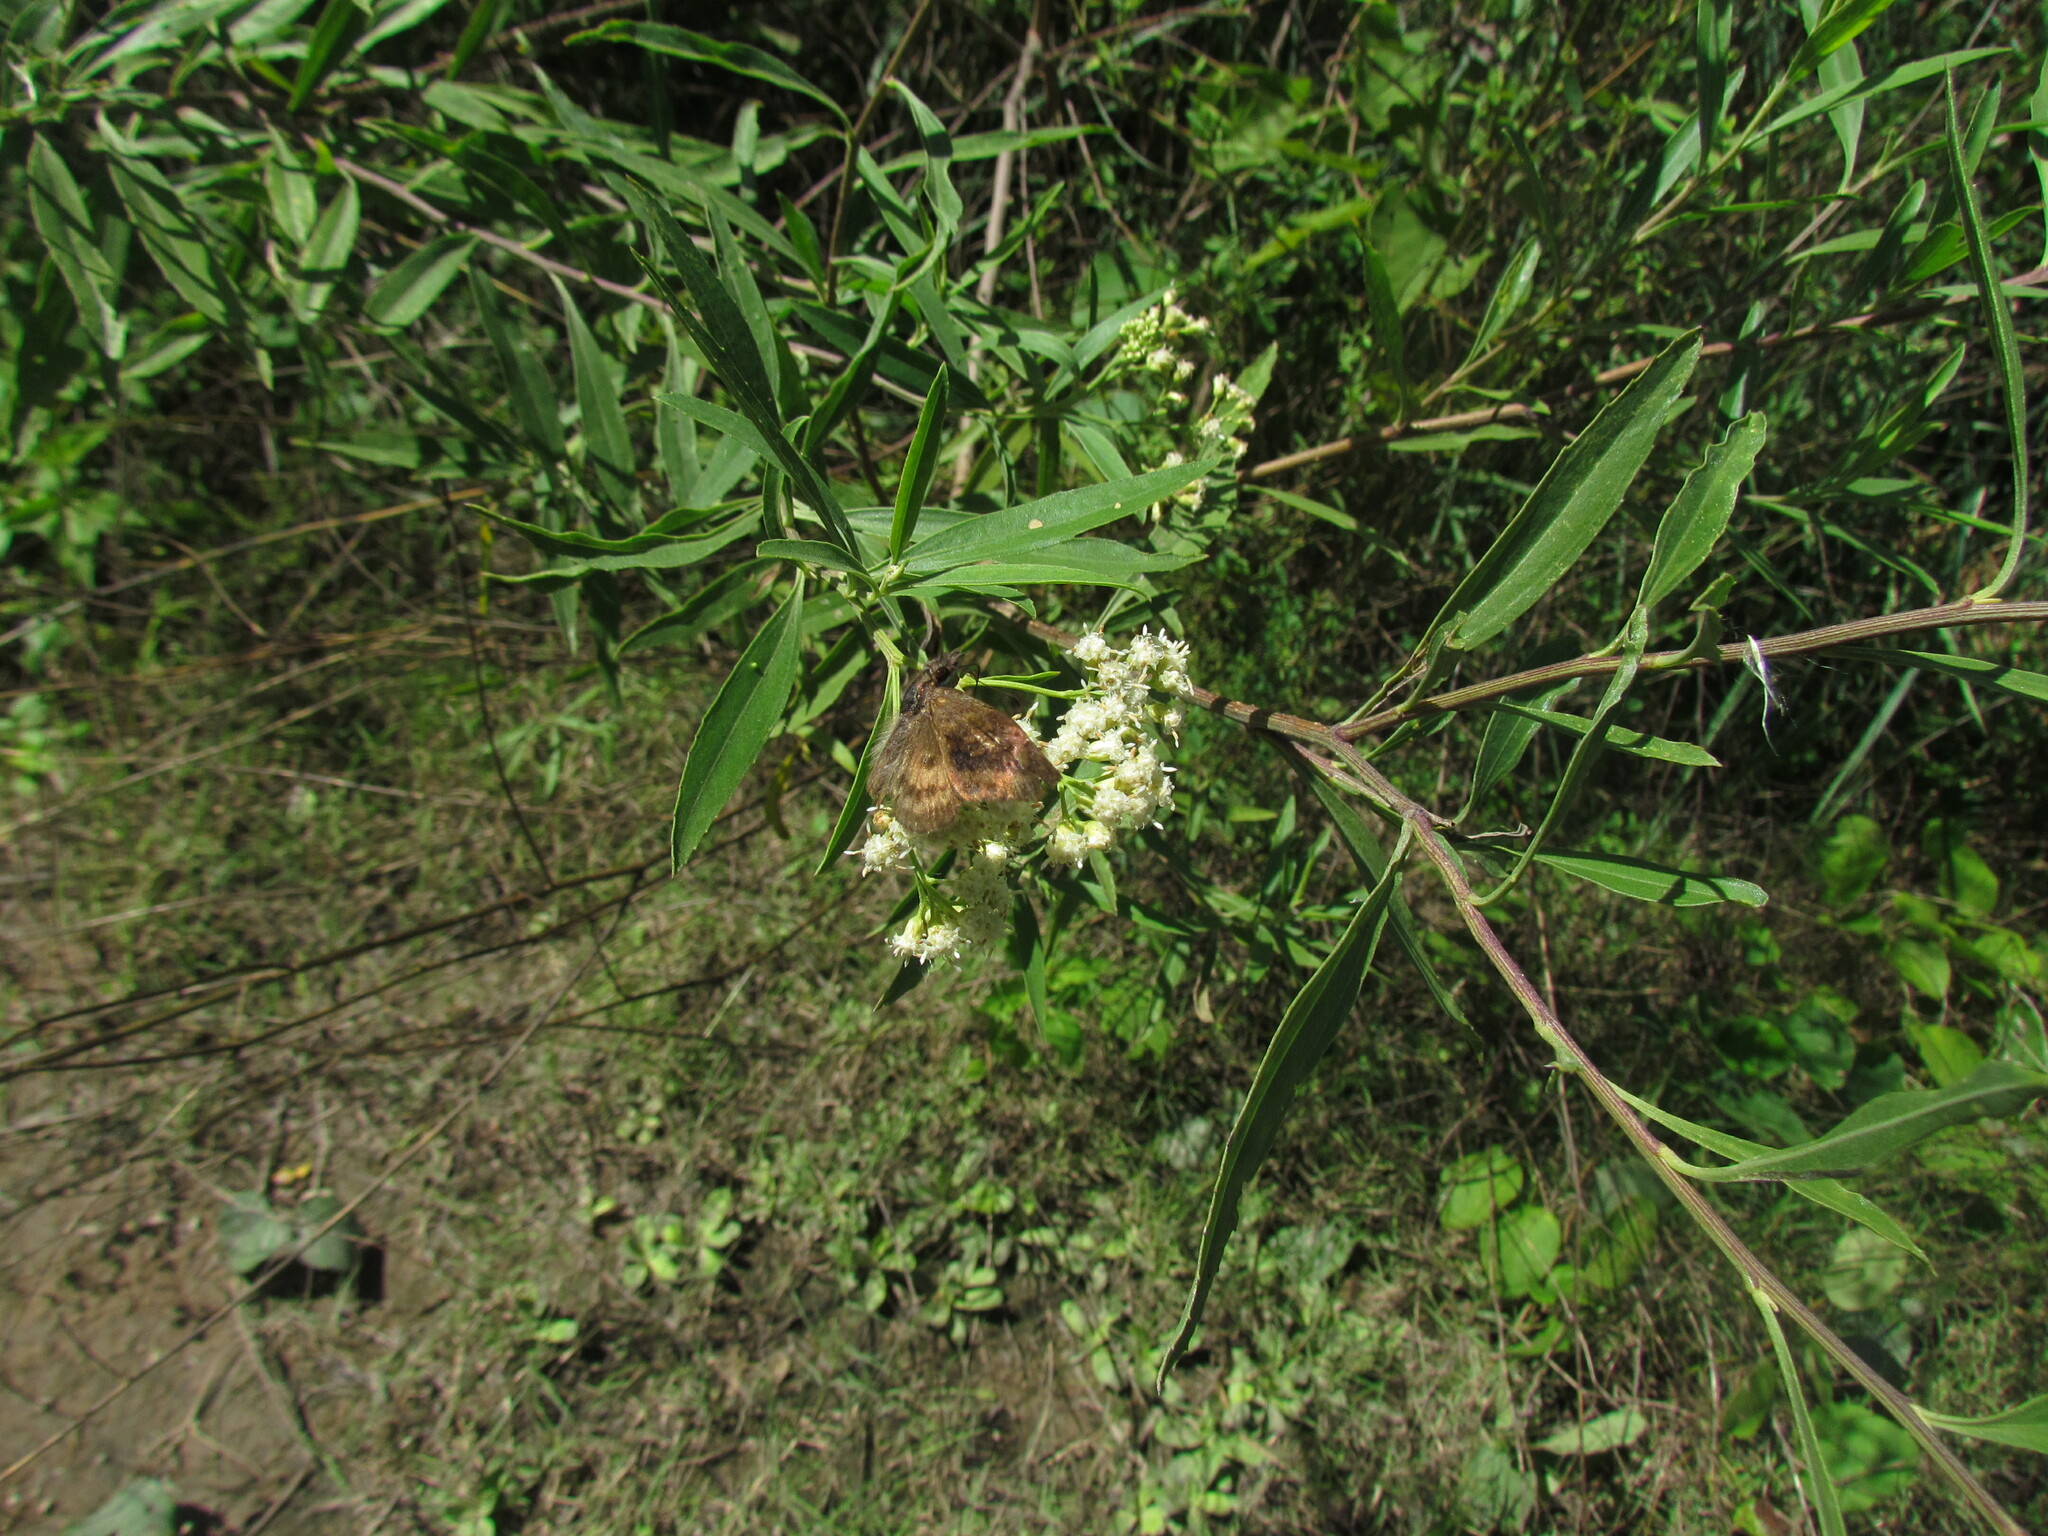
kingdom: Animalia
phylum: Arthropoda
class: Insecta
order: Lepidoptera
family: Hesperiidae
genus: Theagenes
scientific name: Theagenes dichrous
